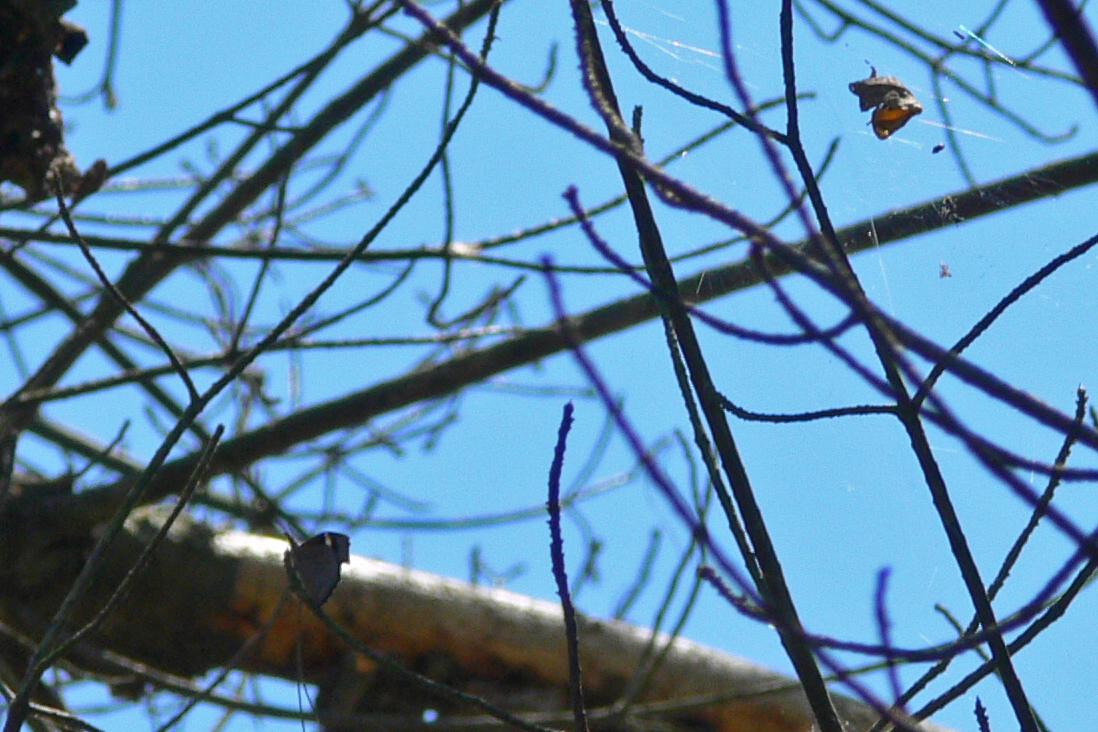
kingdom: Animalia
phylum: Arthropoda
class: Insecta
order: Lepidoptera
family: Nymphalidae
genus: Libytheana
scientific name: Libytheana carinenta
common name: American snout
